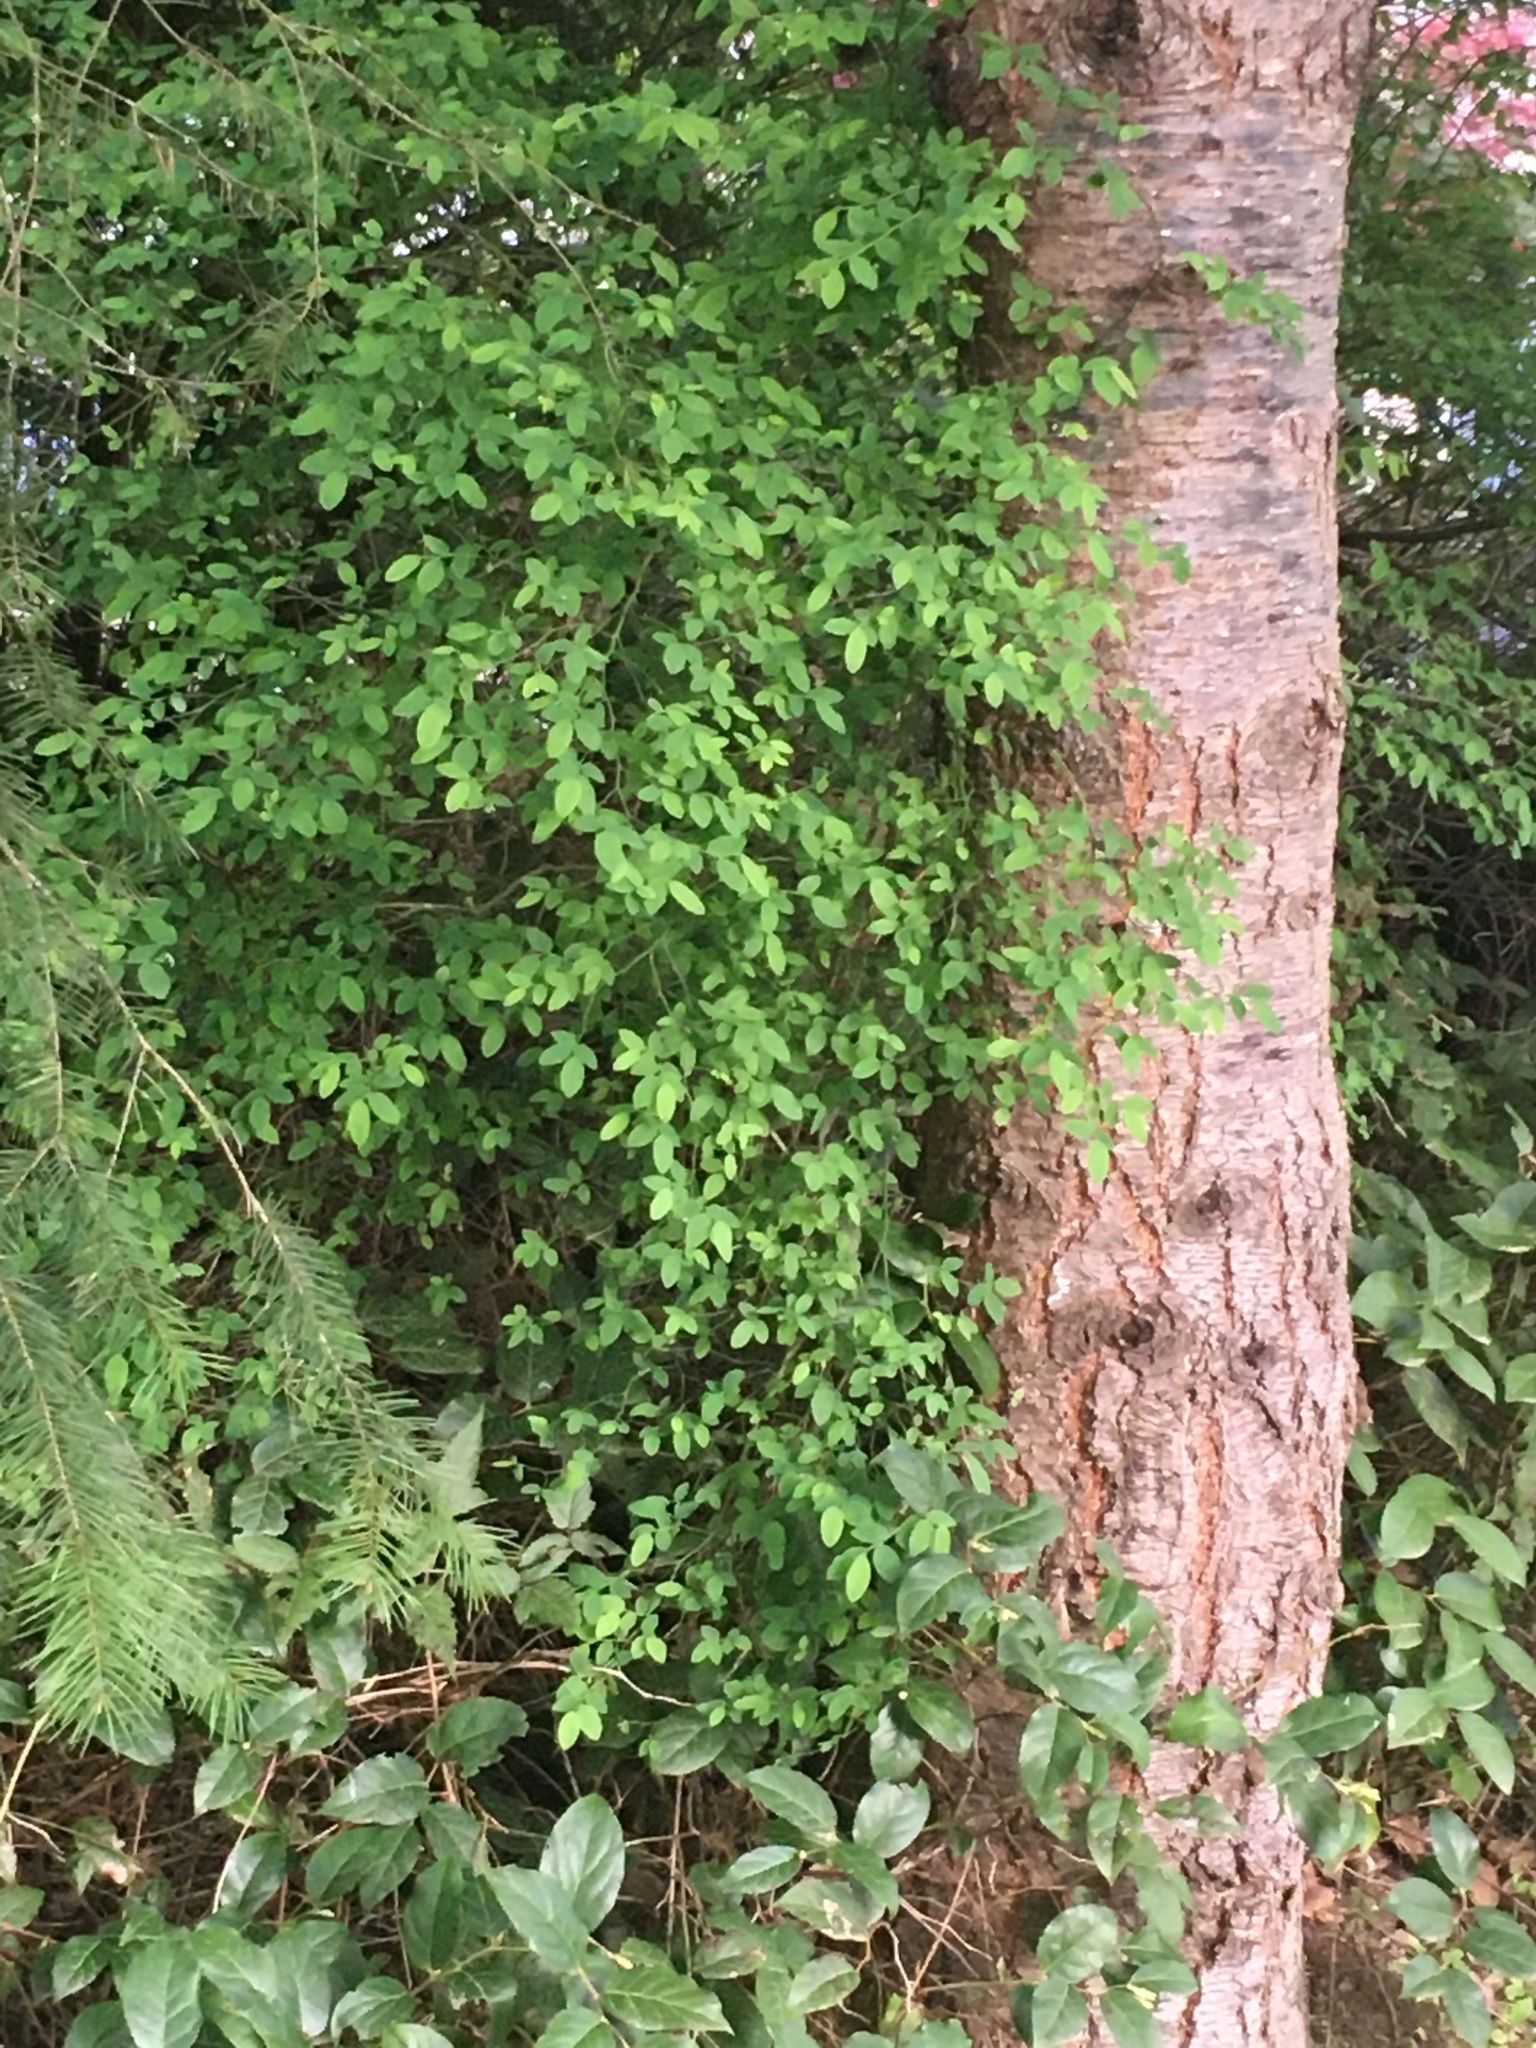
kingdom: Plantae
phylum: Tracheophyta
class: Pinopsida
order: Pinales
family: Pinaceae
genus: Pseudotsuga
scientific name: Pseudotsuga menziesii
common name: Douglas fir
